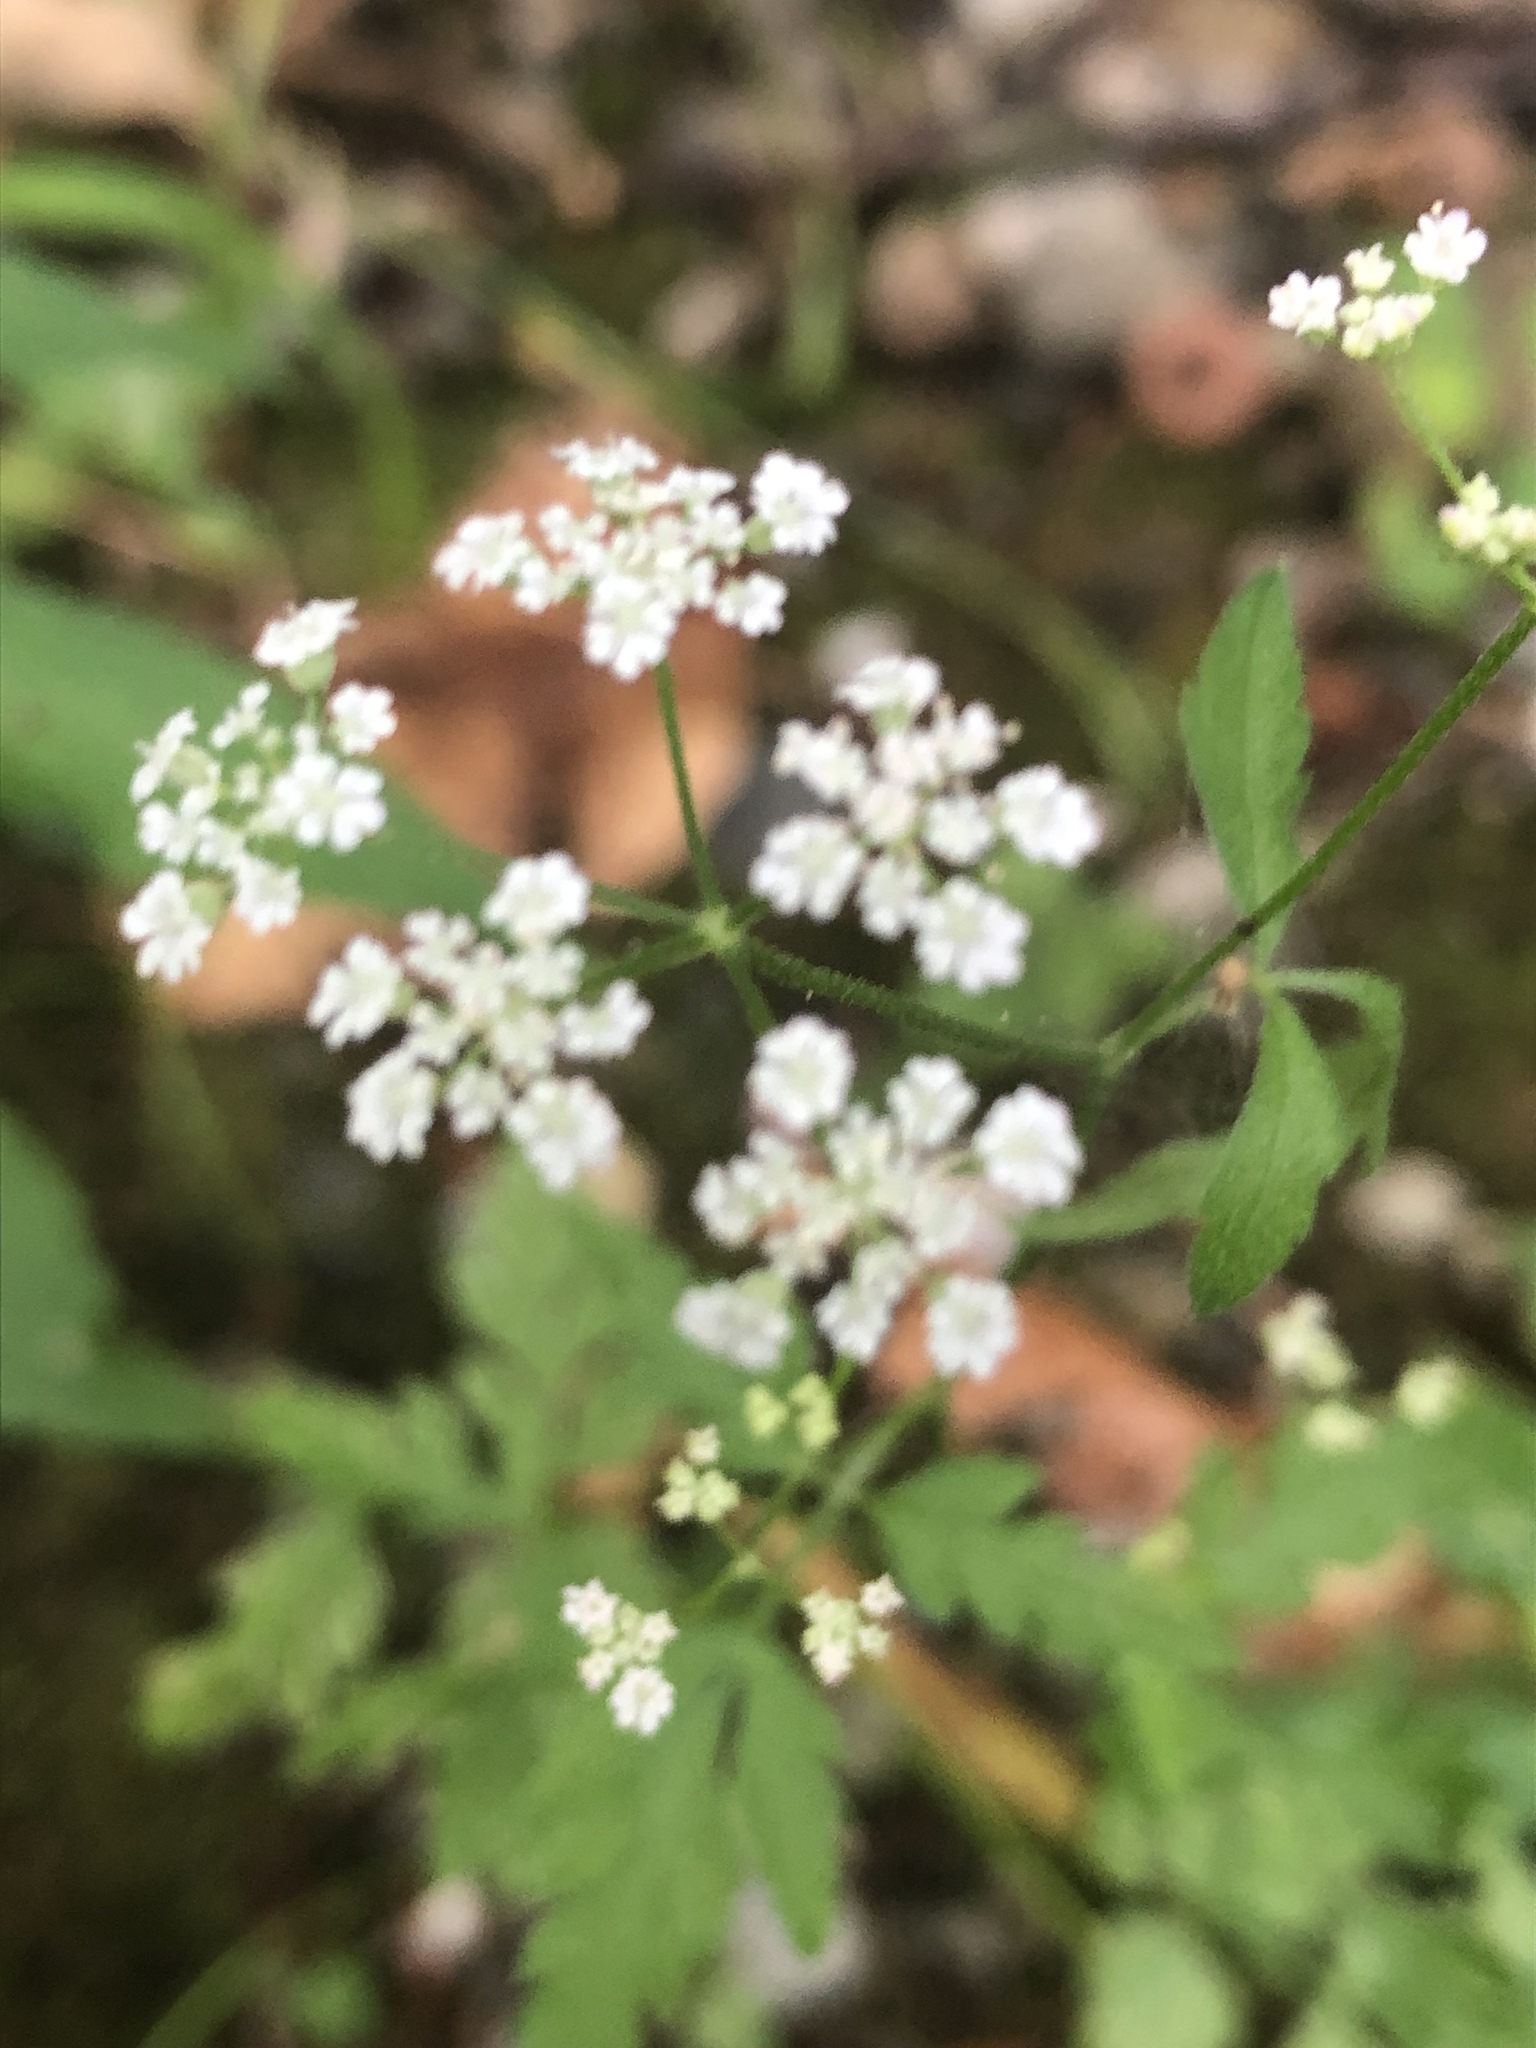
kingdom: Plantae
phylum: Tracheophyta
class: Magnoliopsida
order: Apiales
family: Apiaceae
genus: Torilis
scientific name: Torilis arvensis
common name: Spreading hedge-parsley
